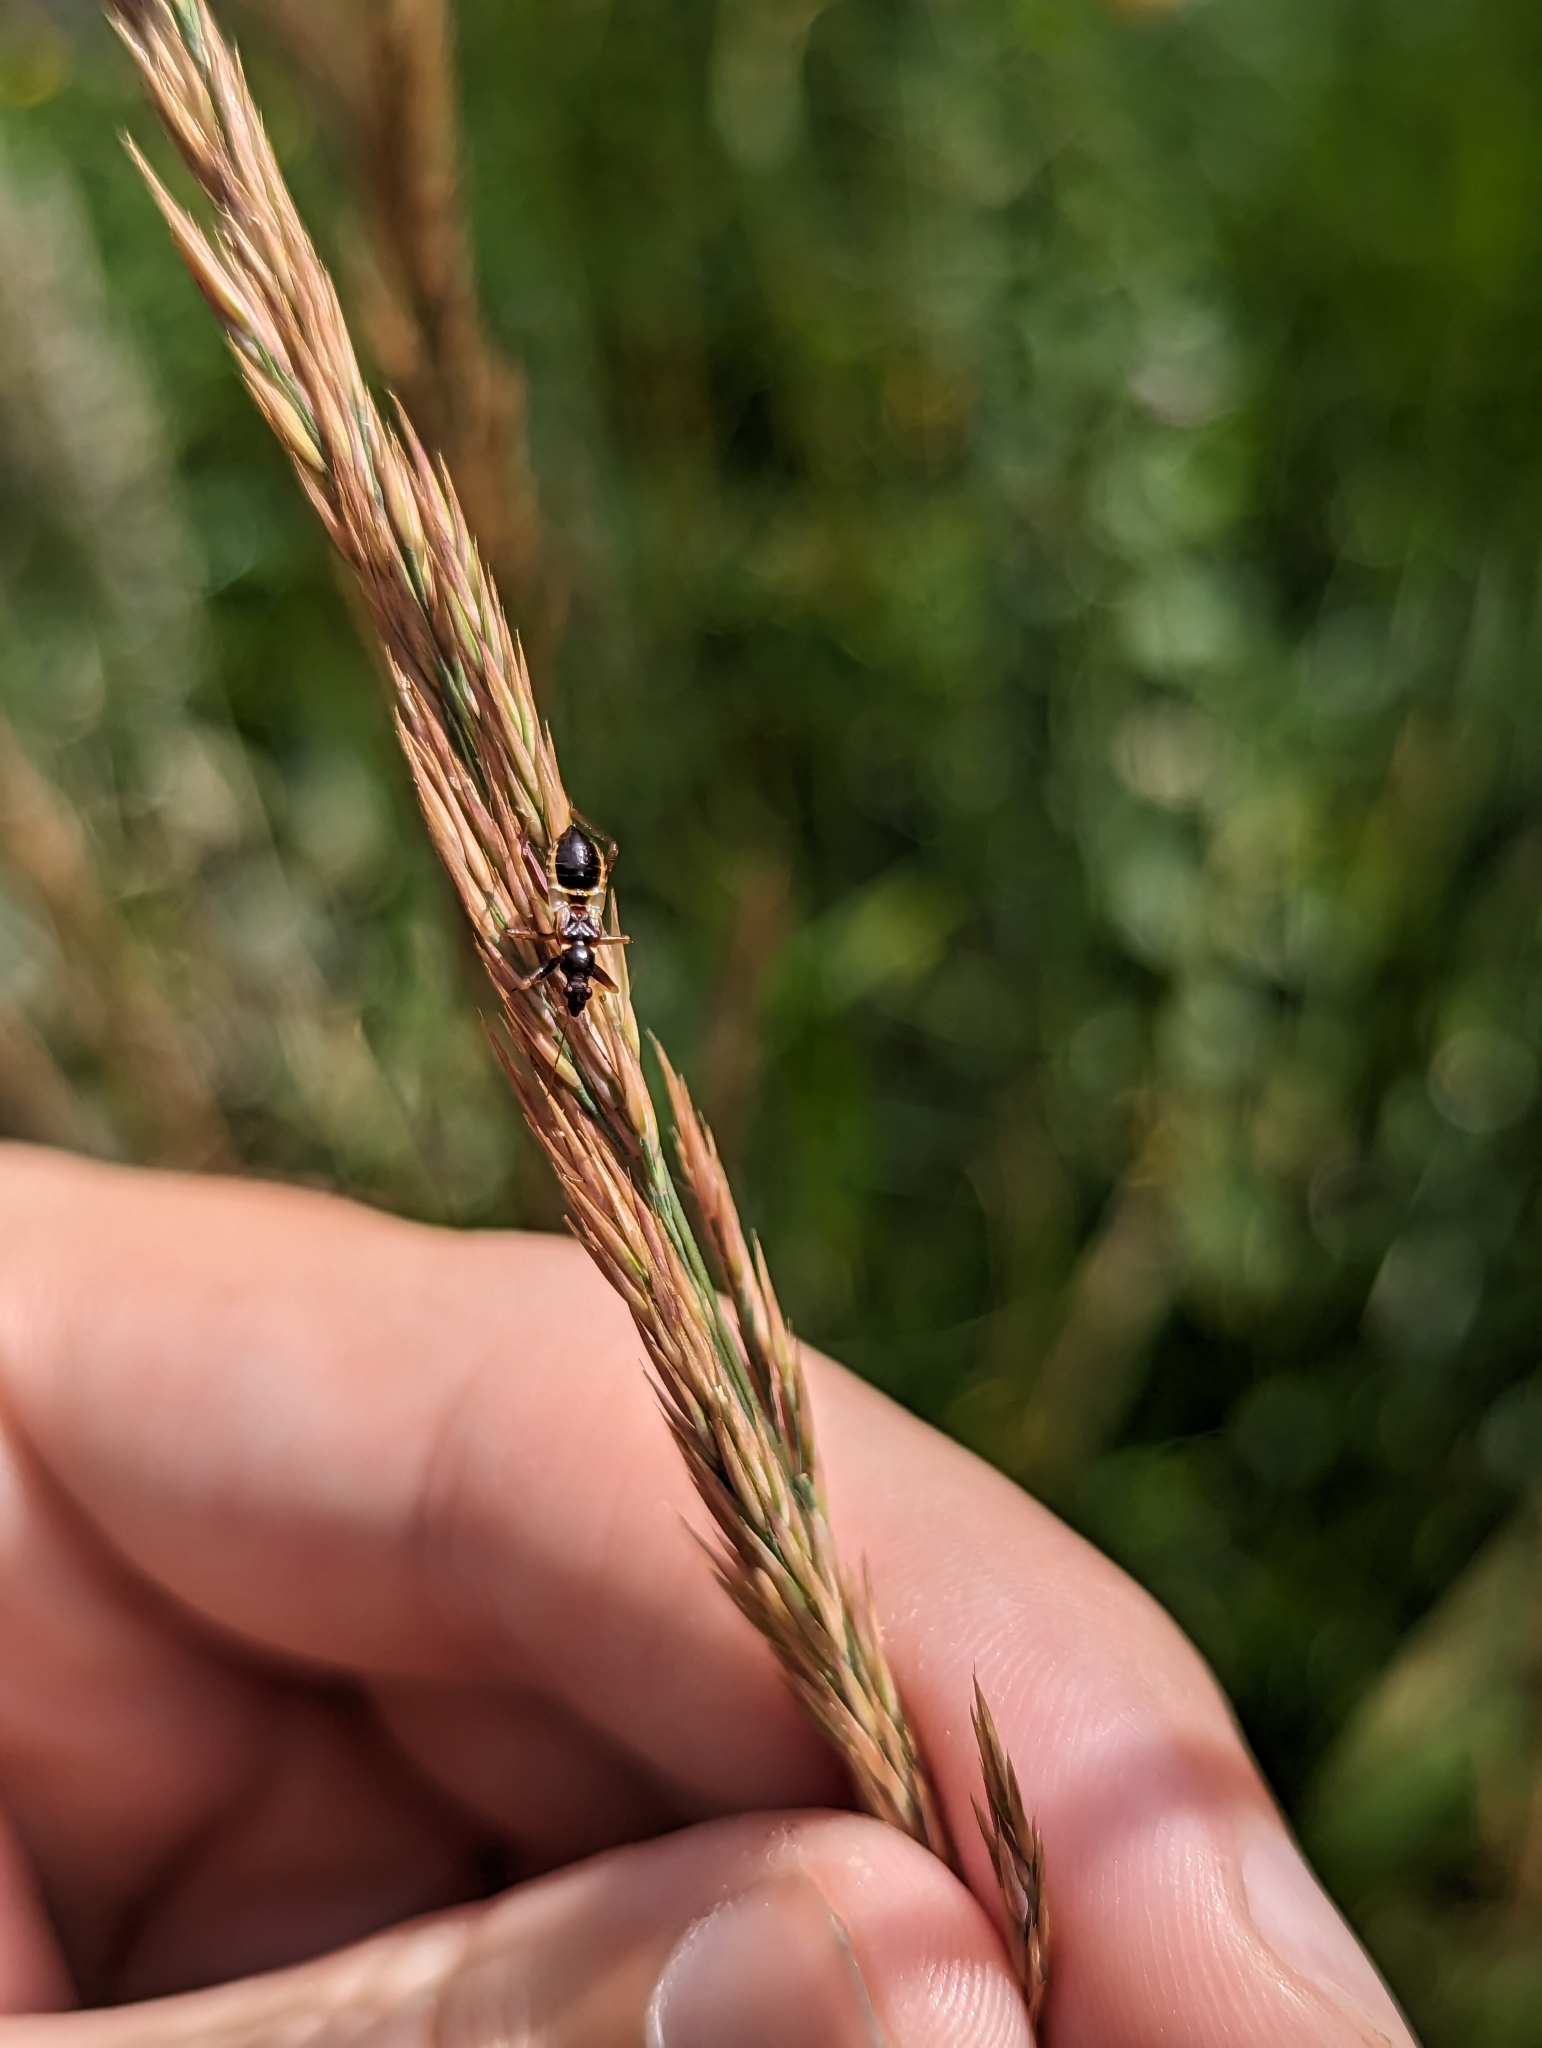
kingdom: Animalia
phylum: Arthropoda
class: Insecta
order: Hemiptera
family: Nabidae
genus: Himacerus
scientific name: Himacerus mirmicoides
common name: Ant damsel bug
